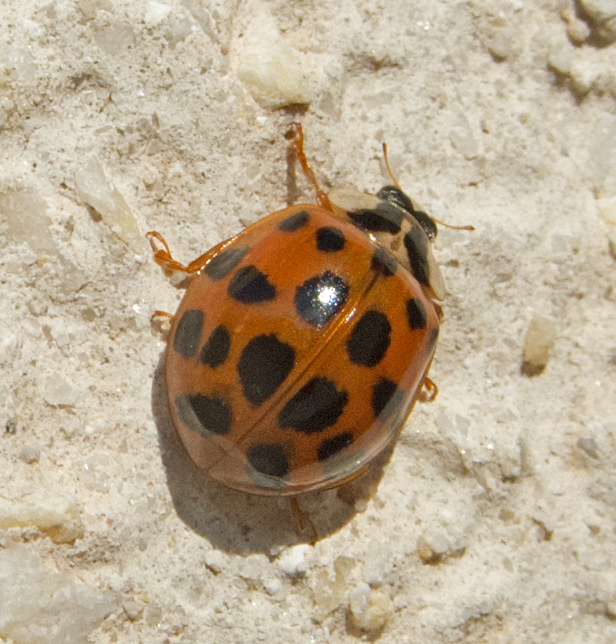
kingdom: Animalia
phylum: Arthropoda
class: Insecta
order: Coleoptera
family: Coccinellidae
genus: Harmonia
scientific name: Harmonia axyridis
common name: Harlequin ladybird
